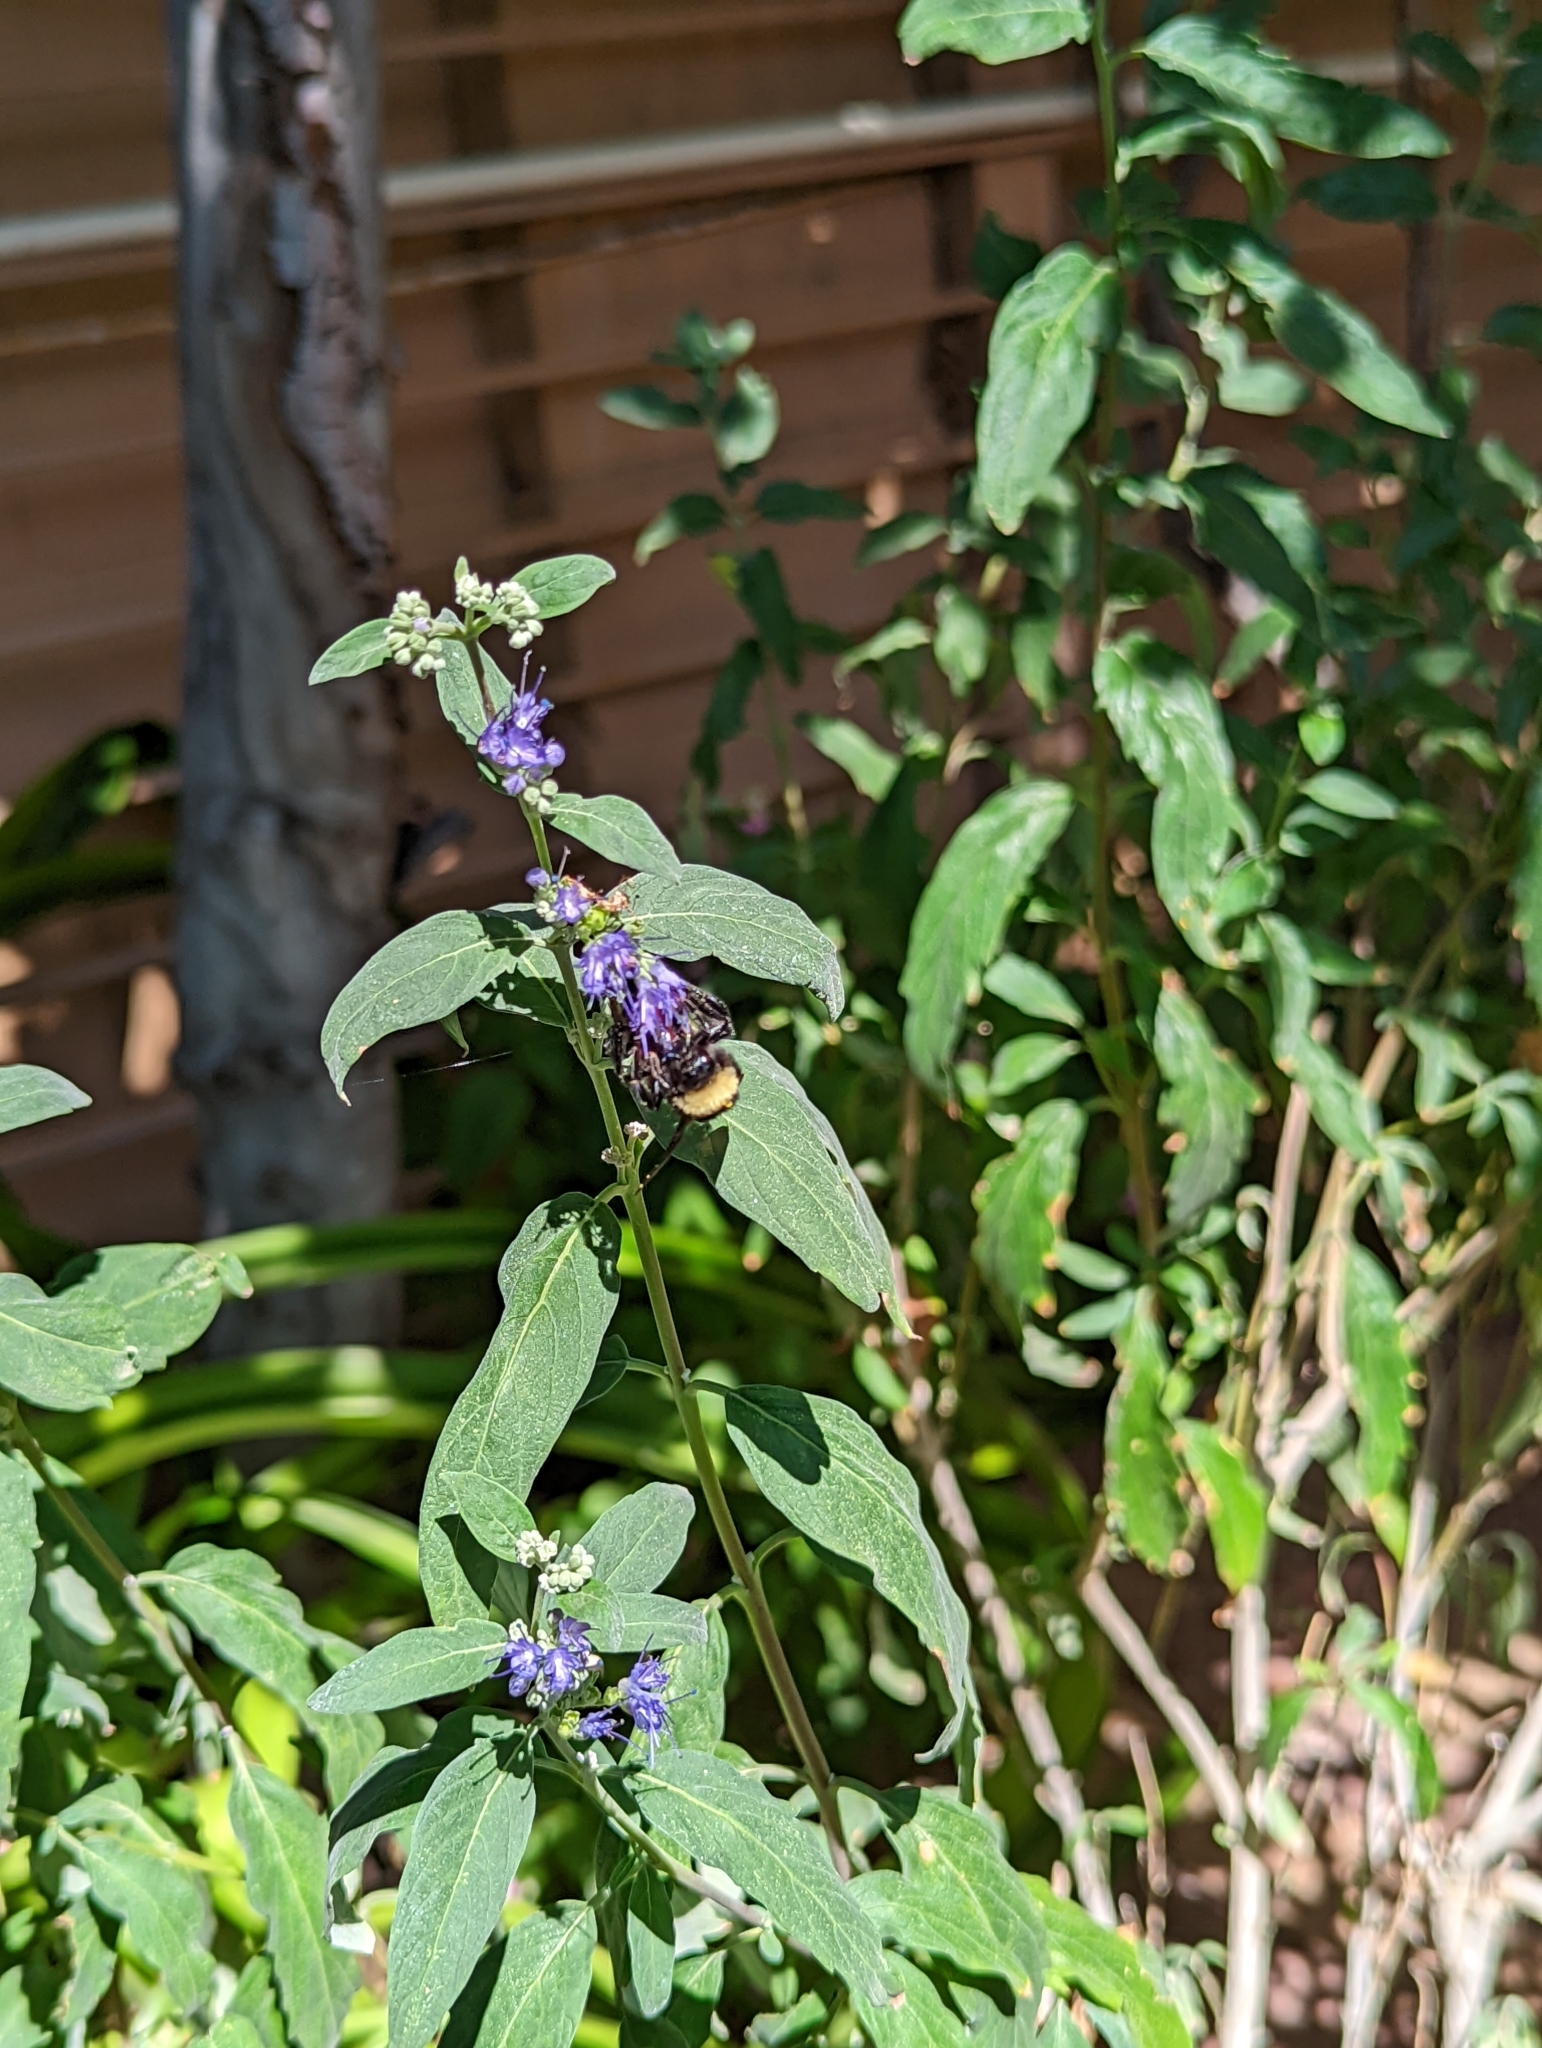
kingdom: Animalia
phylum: Arthropoda
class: Insecta
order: Hymenoptera
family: Apidae
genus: Bombus
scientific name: Bombus pensylvanicus
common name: Bumble bee
